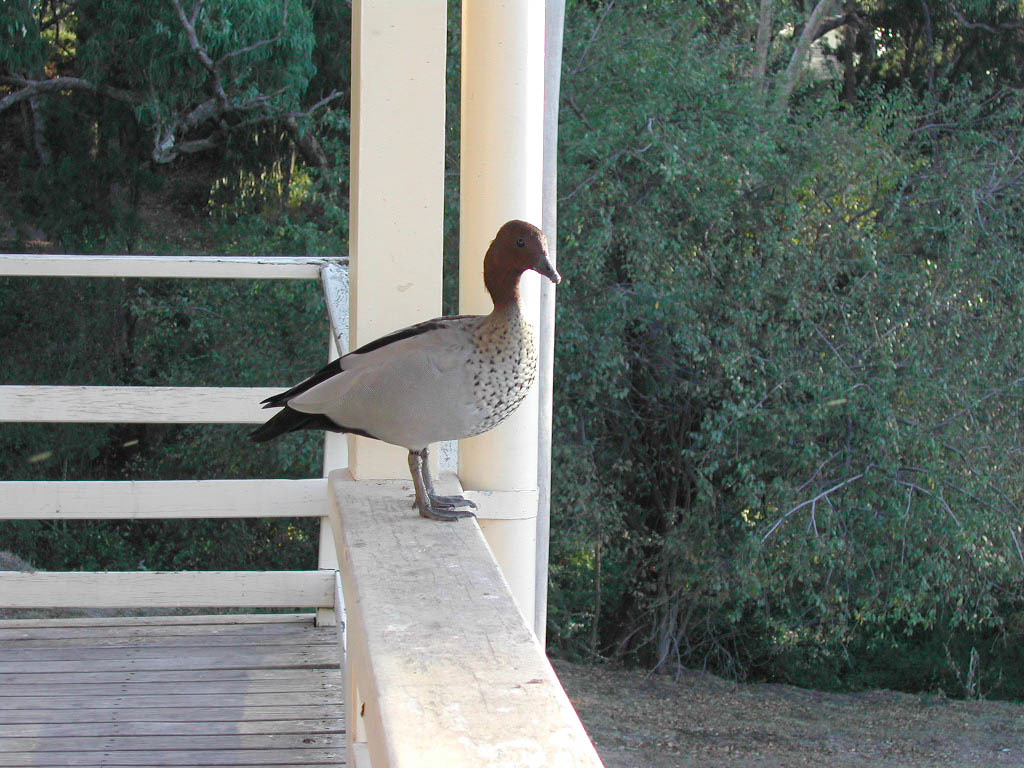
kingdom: Animalia
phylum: Chordata
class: Aves
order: Anseriformes
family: Anatidae
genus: Chenonetta
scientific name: Chenonetta jubata
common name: Maned duck
